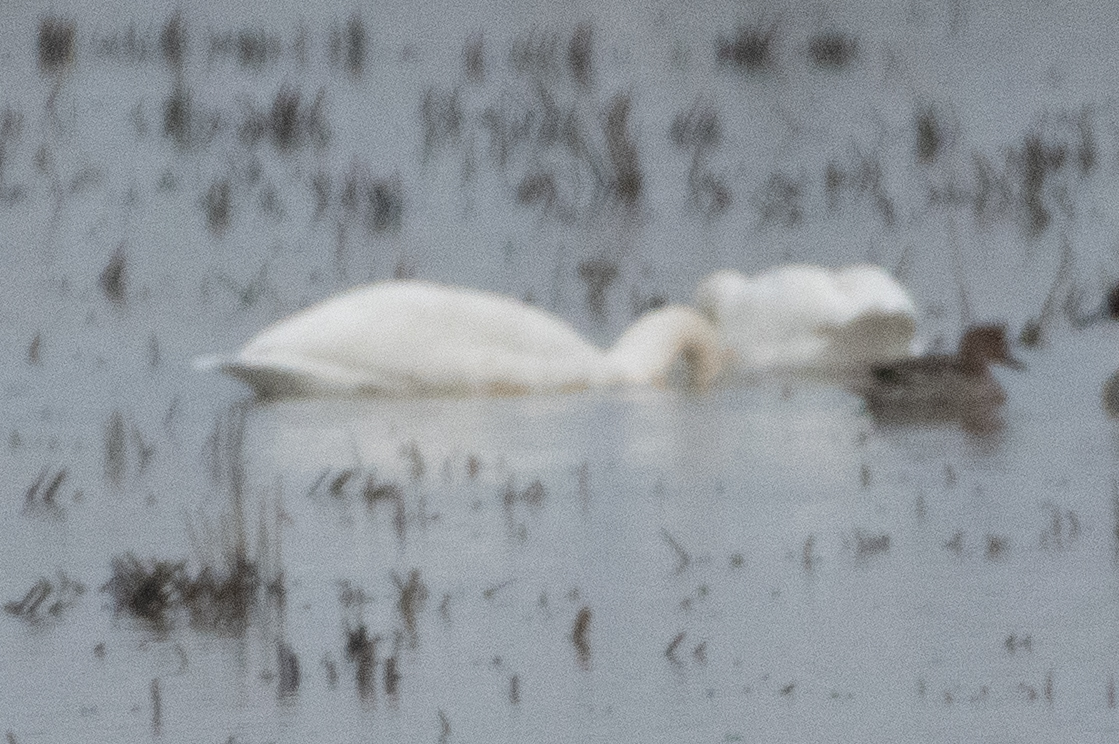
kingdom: Animalia
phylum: Chordata
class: Aves
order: Anseriformes
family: Anatidae
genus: Cygnus
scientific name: Cygnus columbianus
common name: Tundra swan
